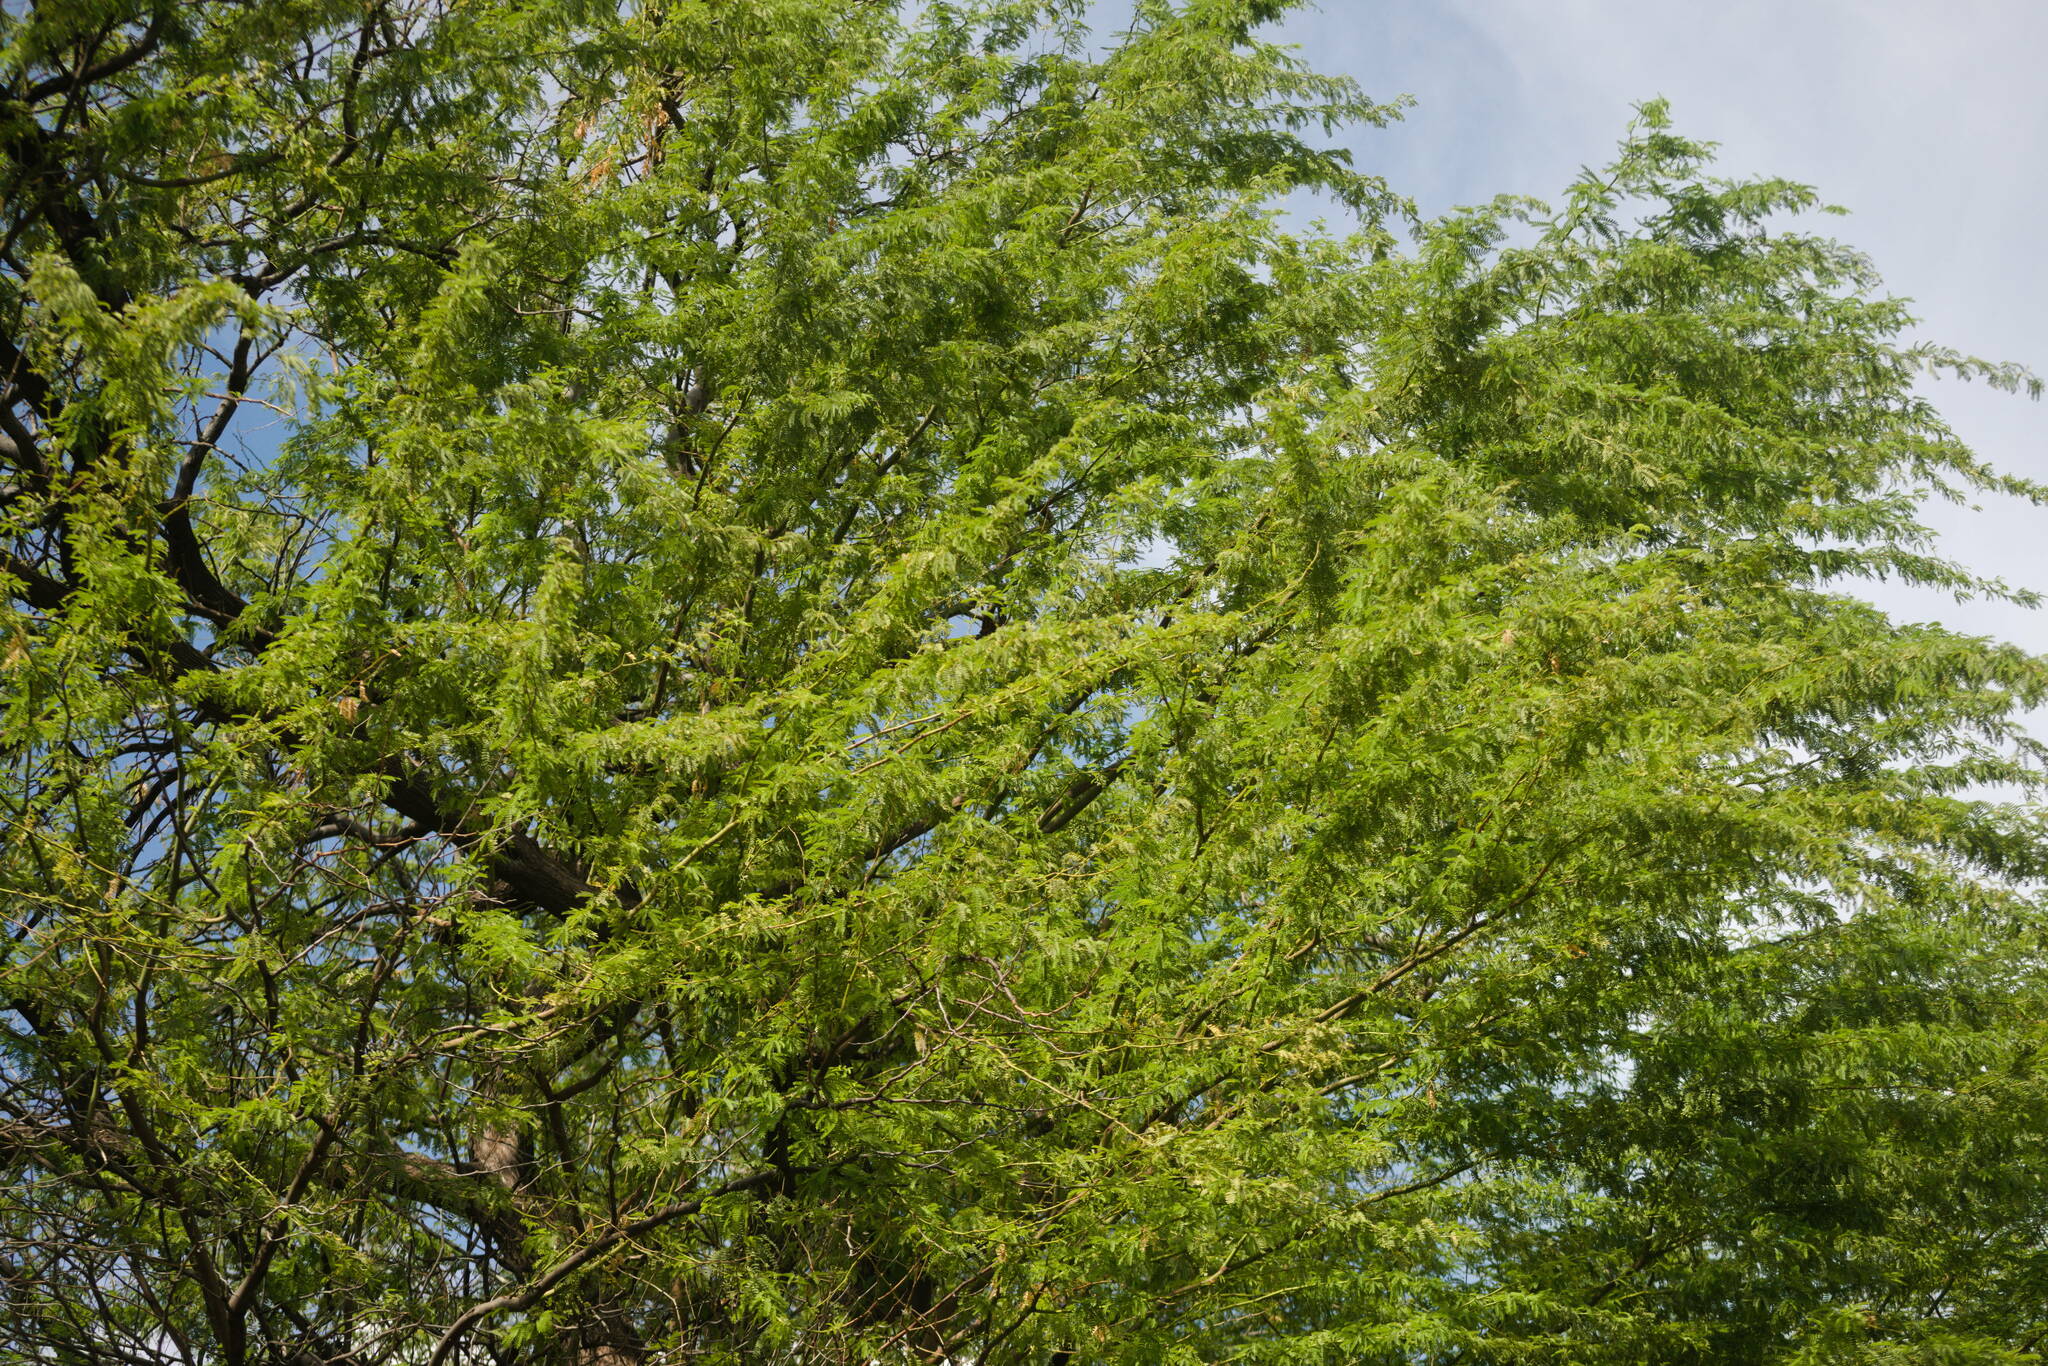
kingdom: Plantae
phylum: Tracheophyta
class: Magnoliopsida
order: Fabales
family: Fabaceae
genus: Prosopis
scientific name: Prosopis pallida
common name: Mesquite
